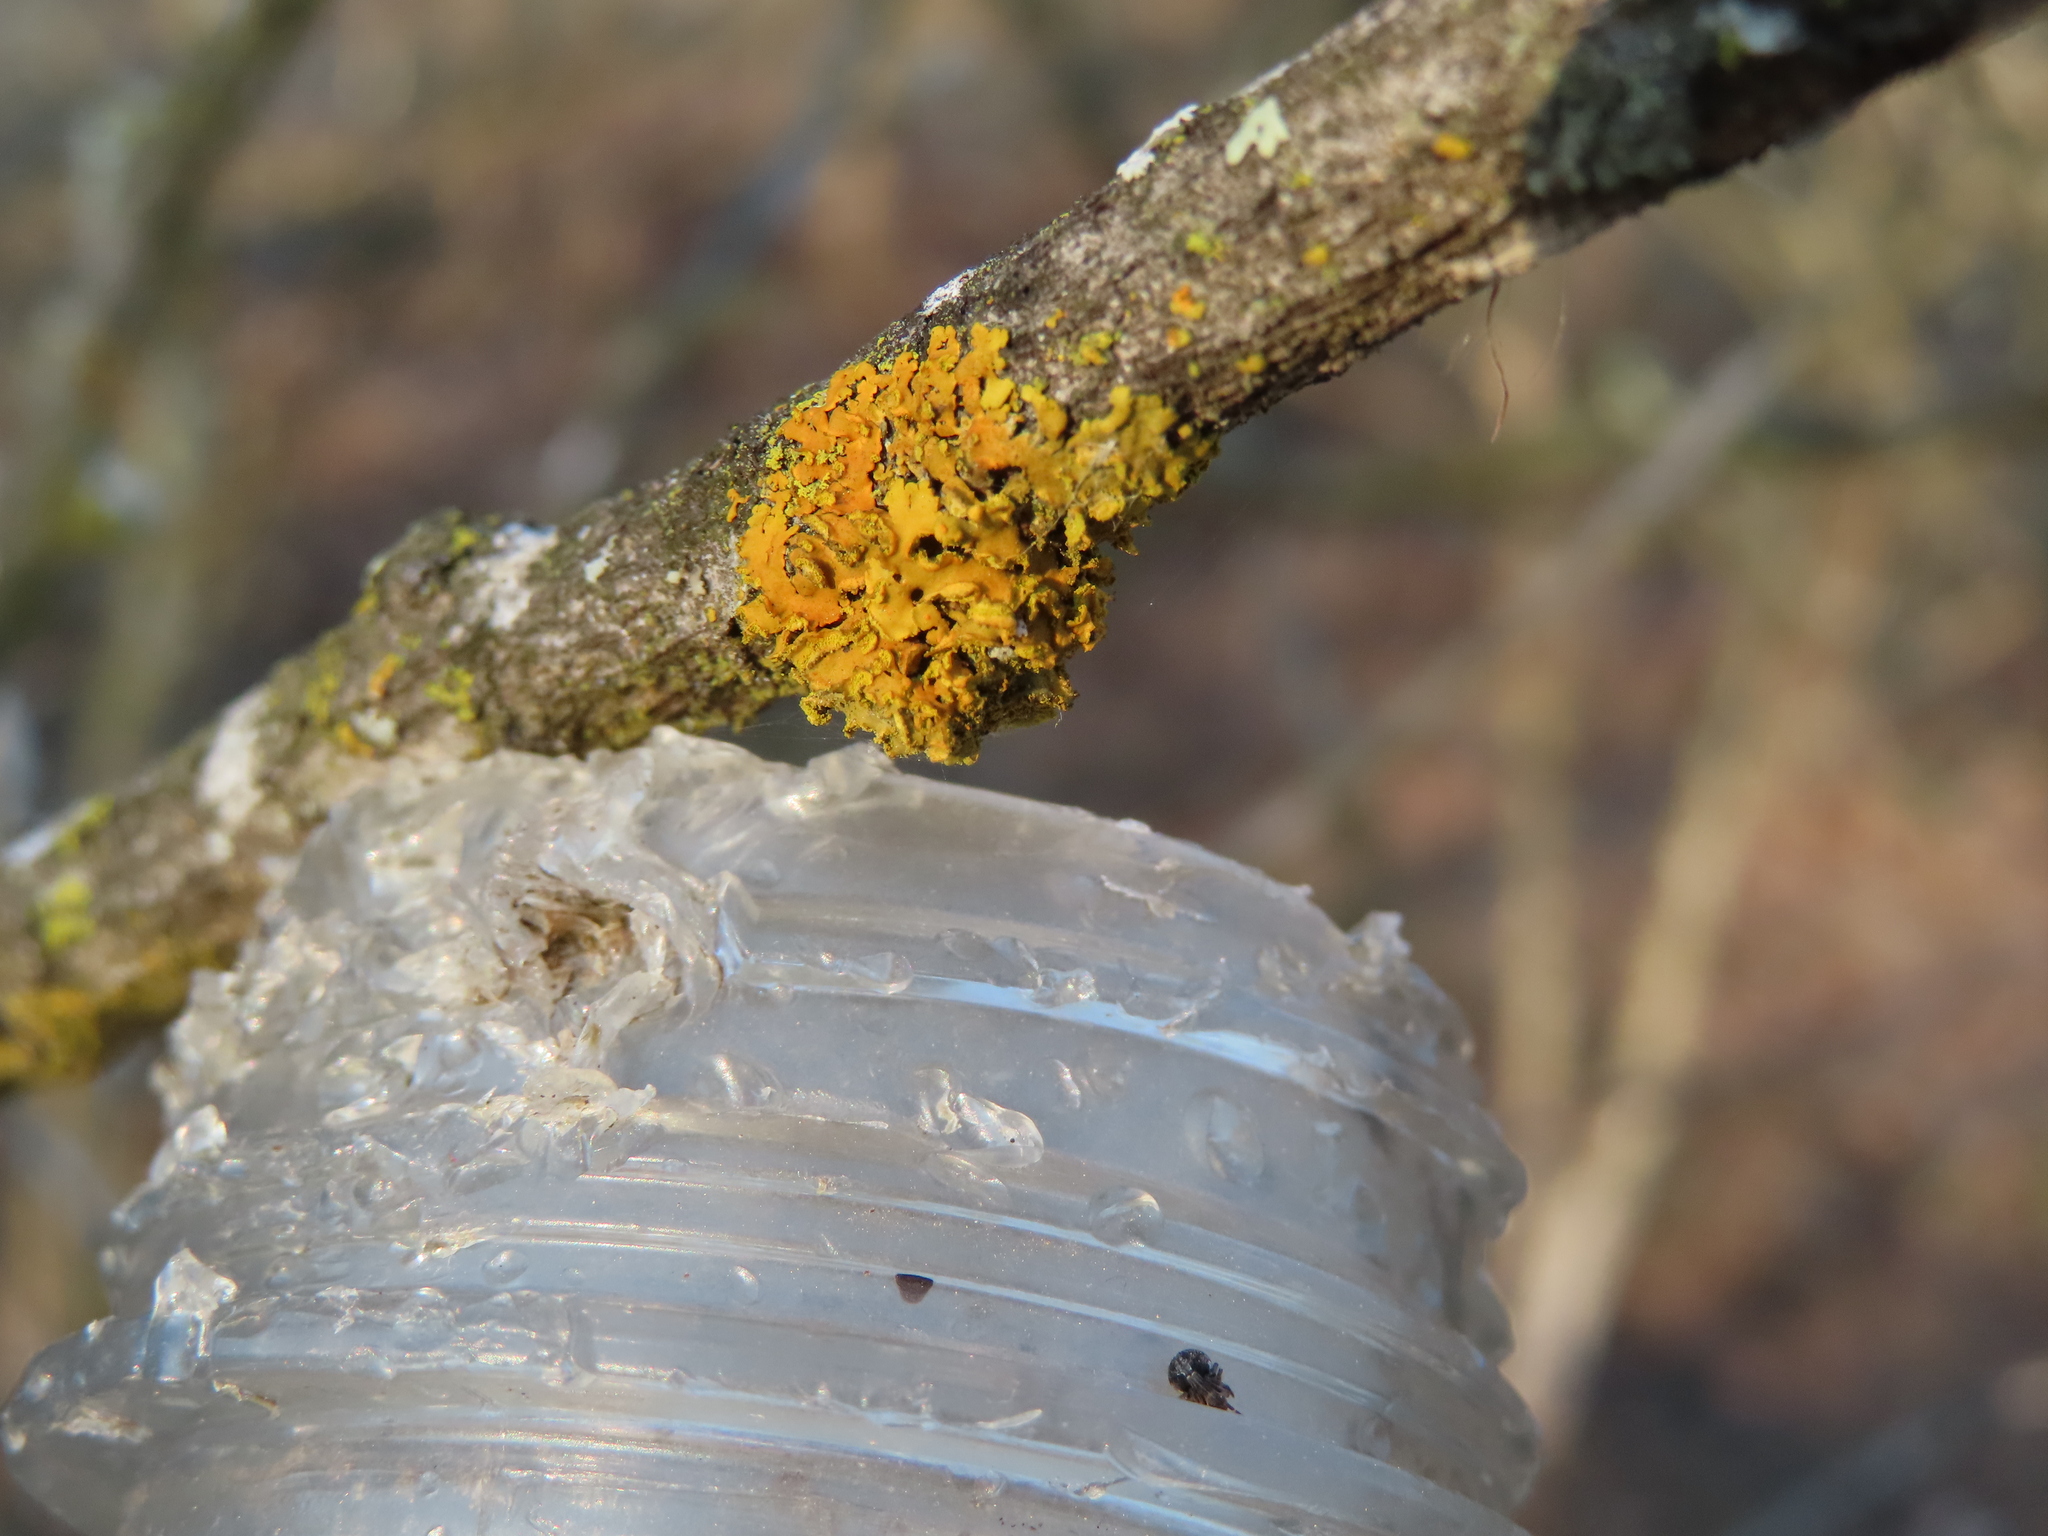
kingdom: Fungi
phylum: Ascomycota
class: Lecanoromycetes
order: Teloschistales
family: Teloschistaceae
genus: Oxneria
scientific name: Oxneria fallax
